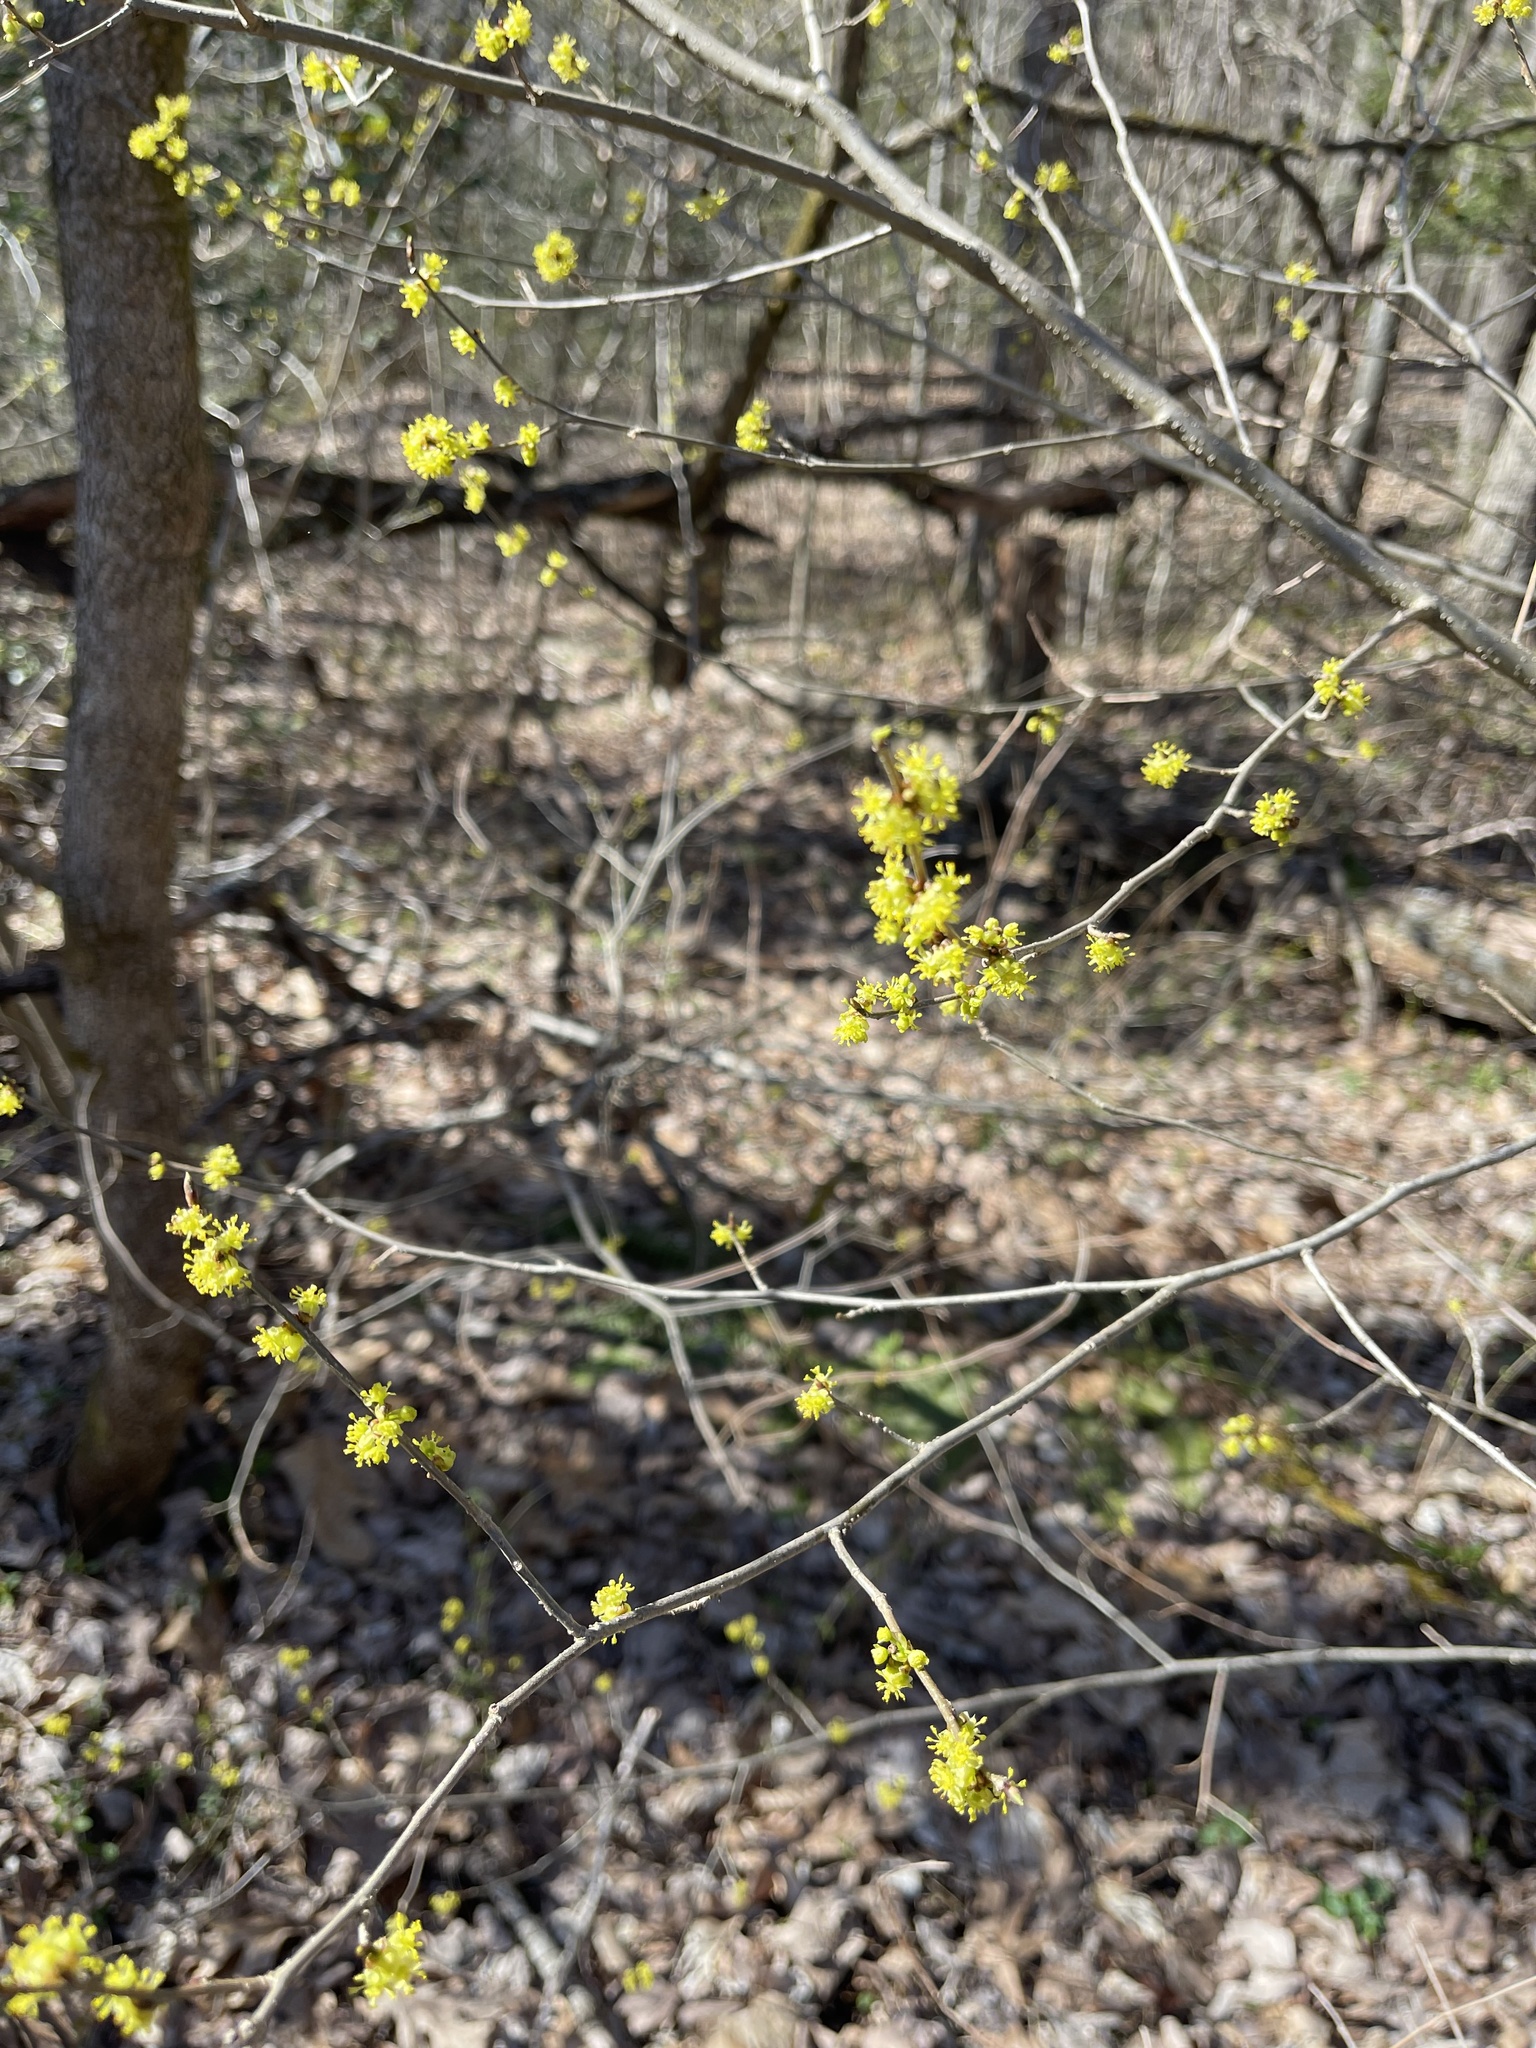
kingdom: Plantae
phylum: Tracheophyta
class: Magnoliopsida
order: Laurales
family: Lauraceae
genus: Lindera
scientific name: Lindera benzoin
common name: Spicebush
